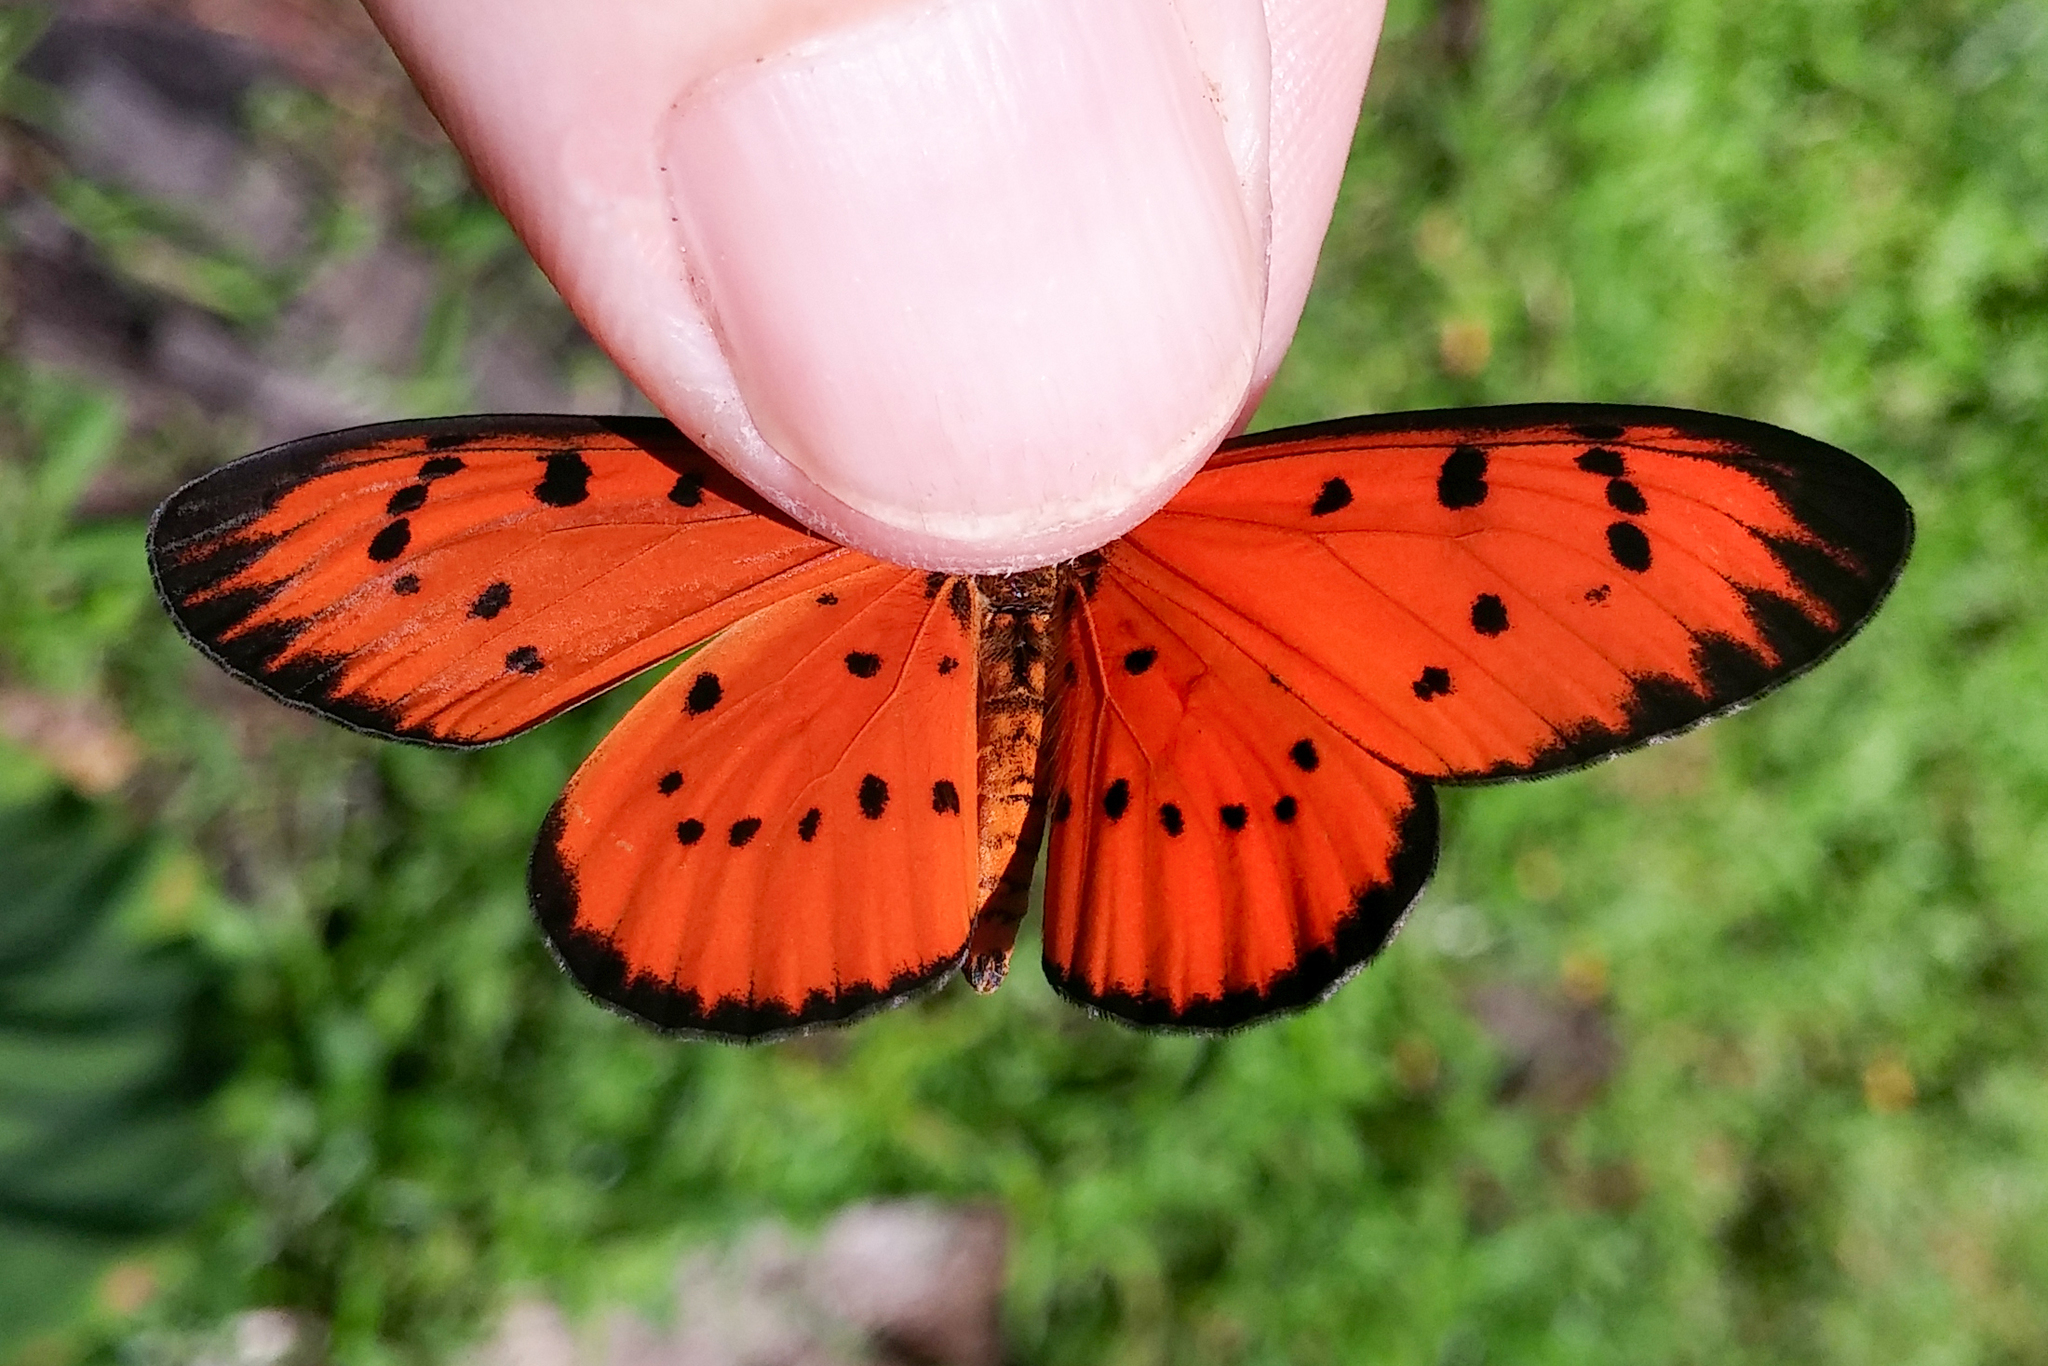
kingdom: Animalia
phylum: Arthropoda
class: Insecta
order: Lepidoptera
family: Nymphalidae
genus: Acraea
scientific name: Acraea
